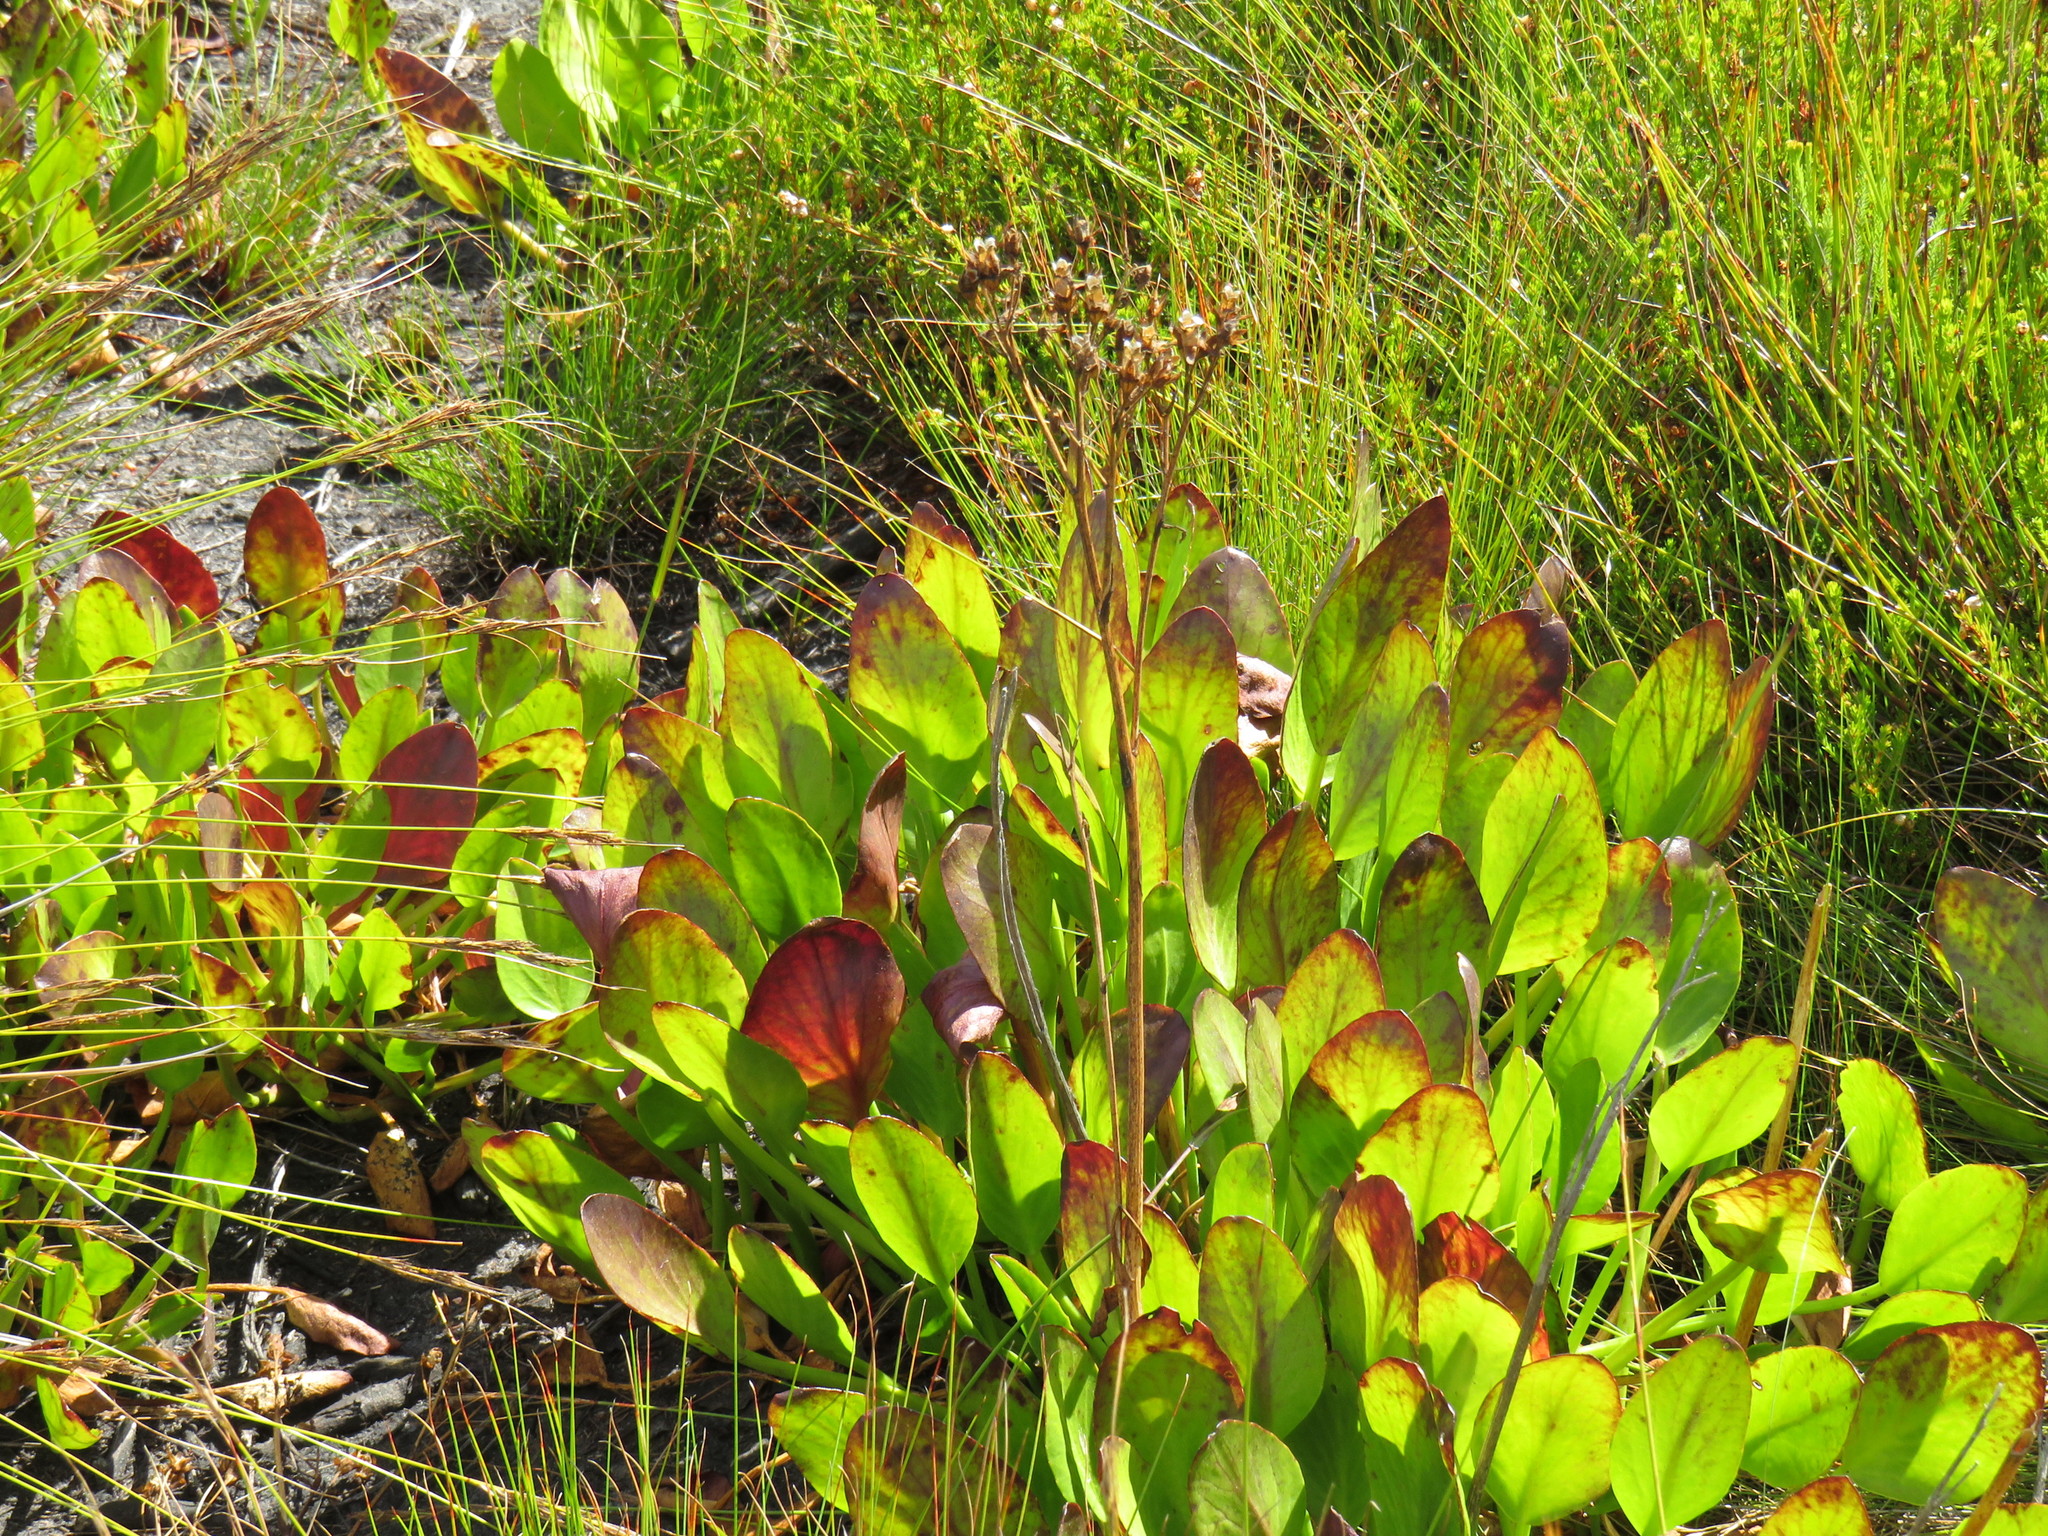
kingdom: Plantae
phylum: Tracheophyta
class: Magnoliopsida
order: Asterales
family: Menyanthaceae
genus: Villarsia
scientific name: Villarsia goldblattiana
